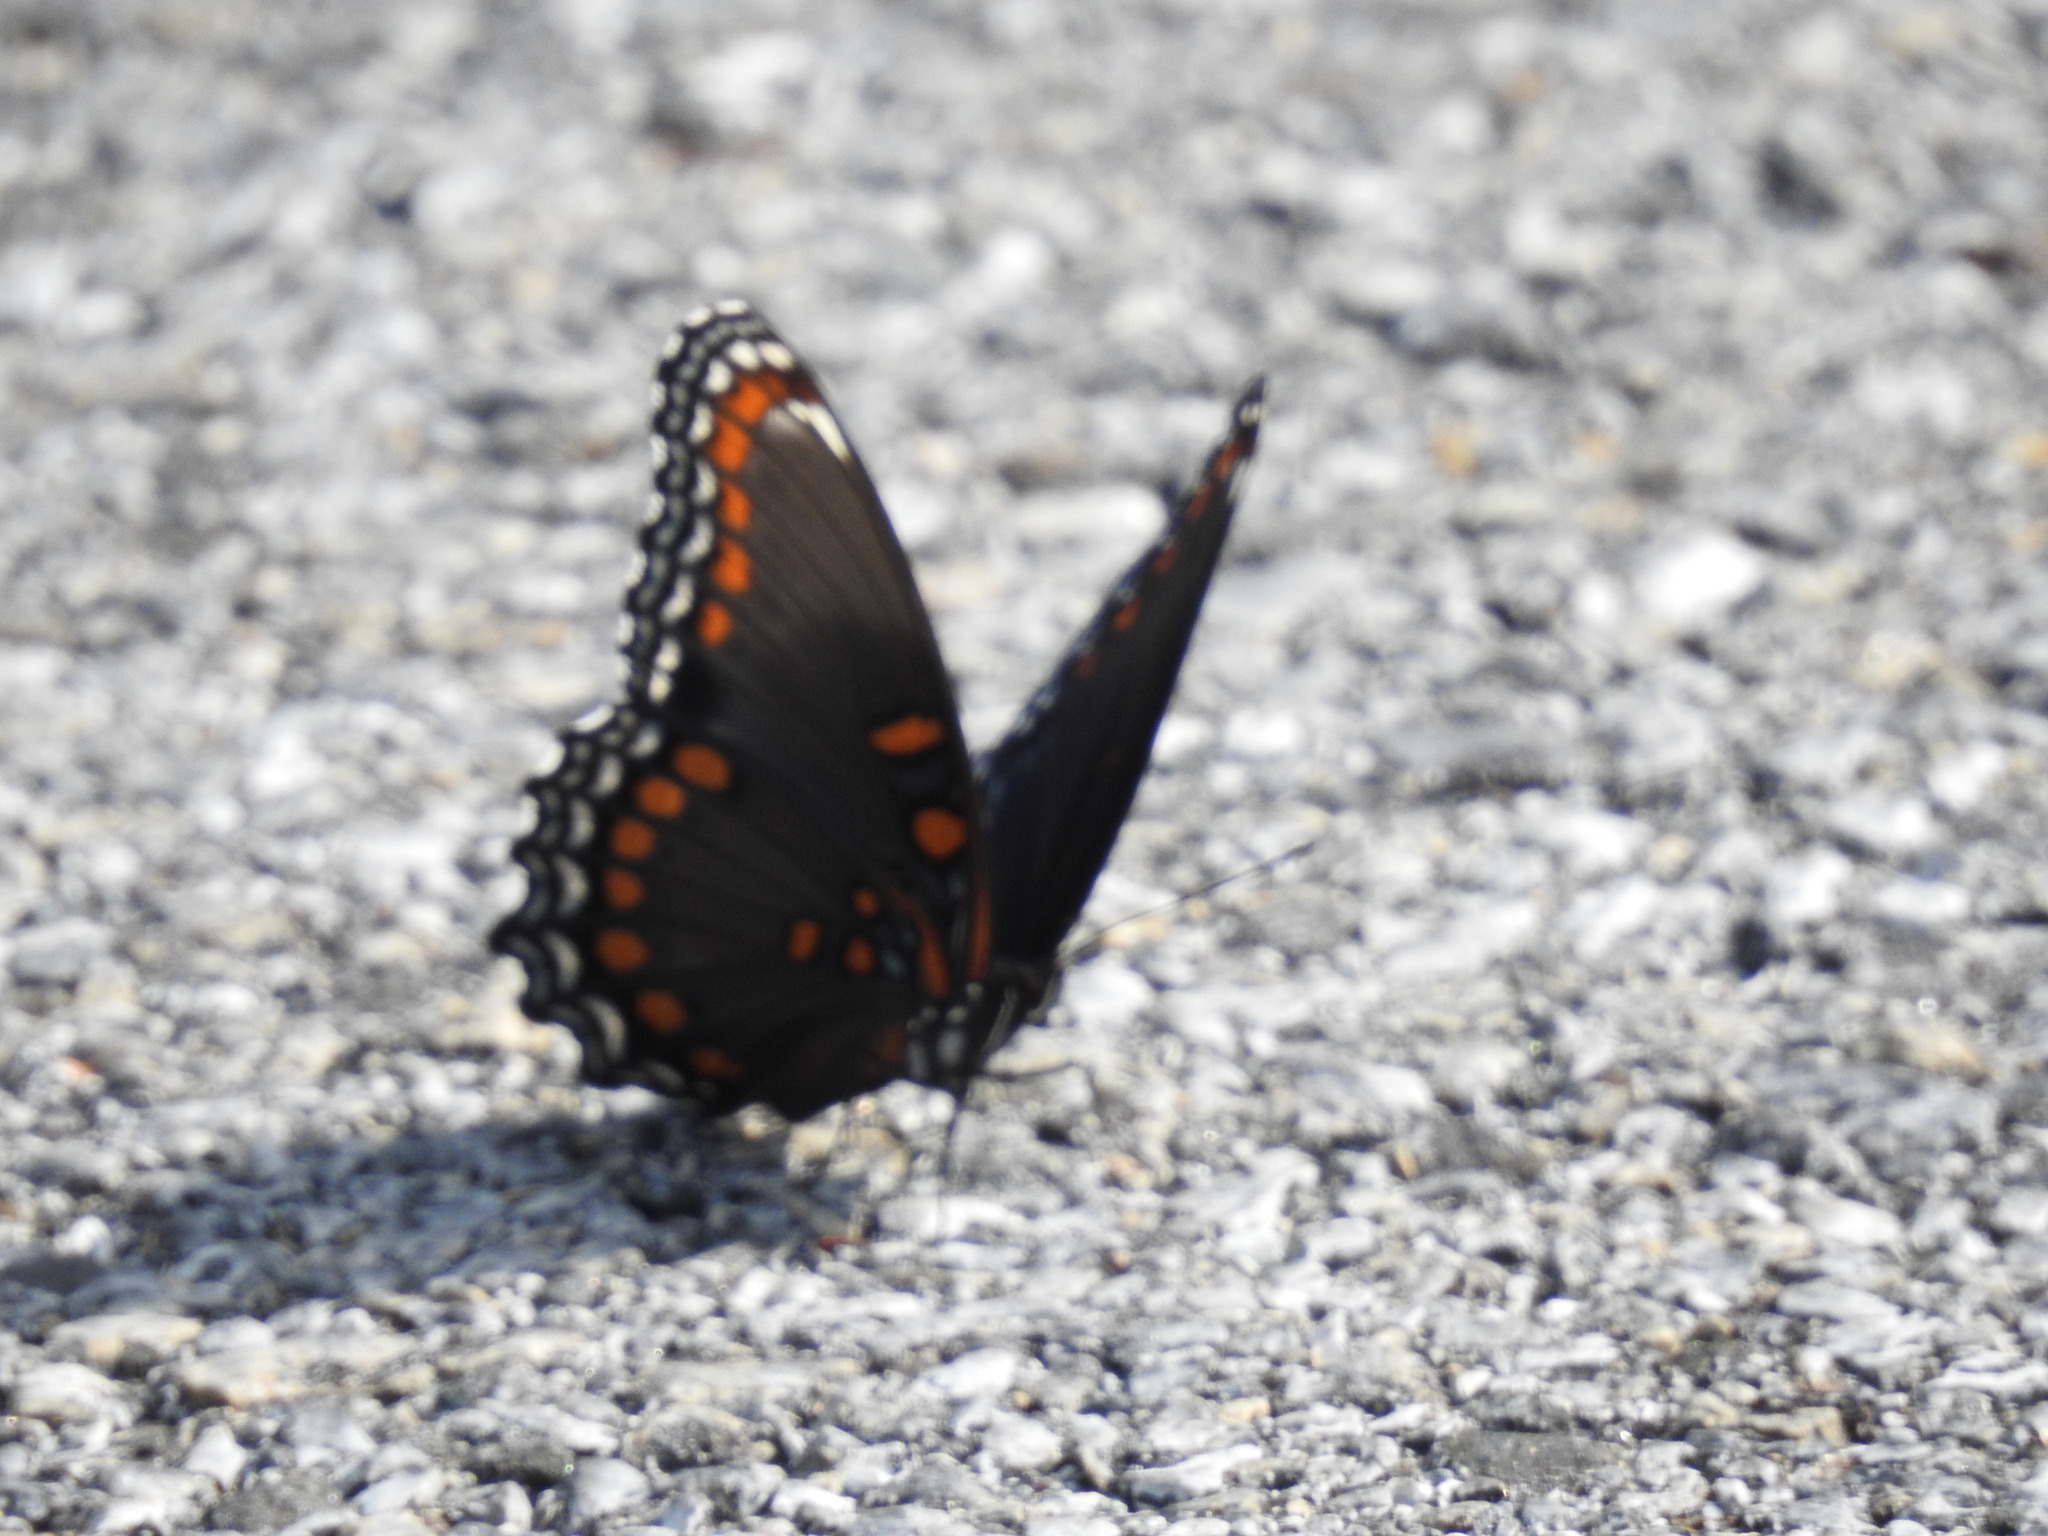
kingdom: Animalia
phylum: Arthropoda
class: Insecta
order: Lepidoptera
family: Nymphalidae
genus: Limenitis
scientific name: Limenitis astyanax
